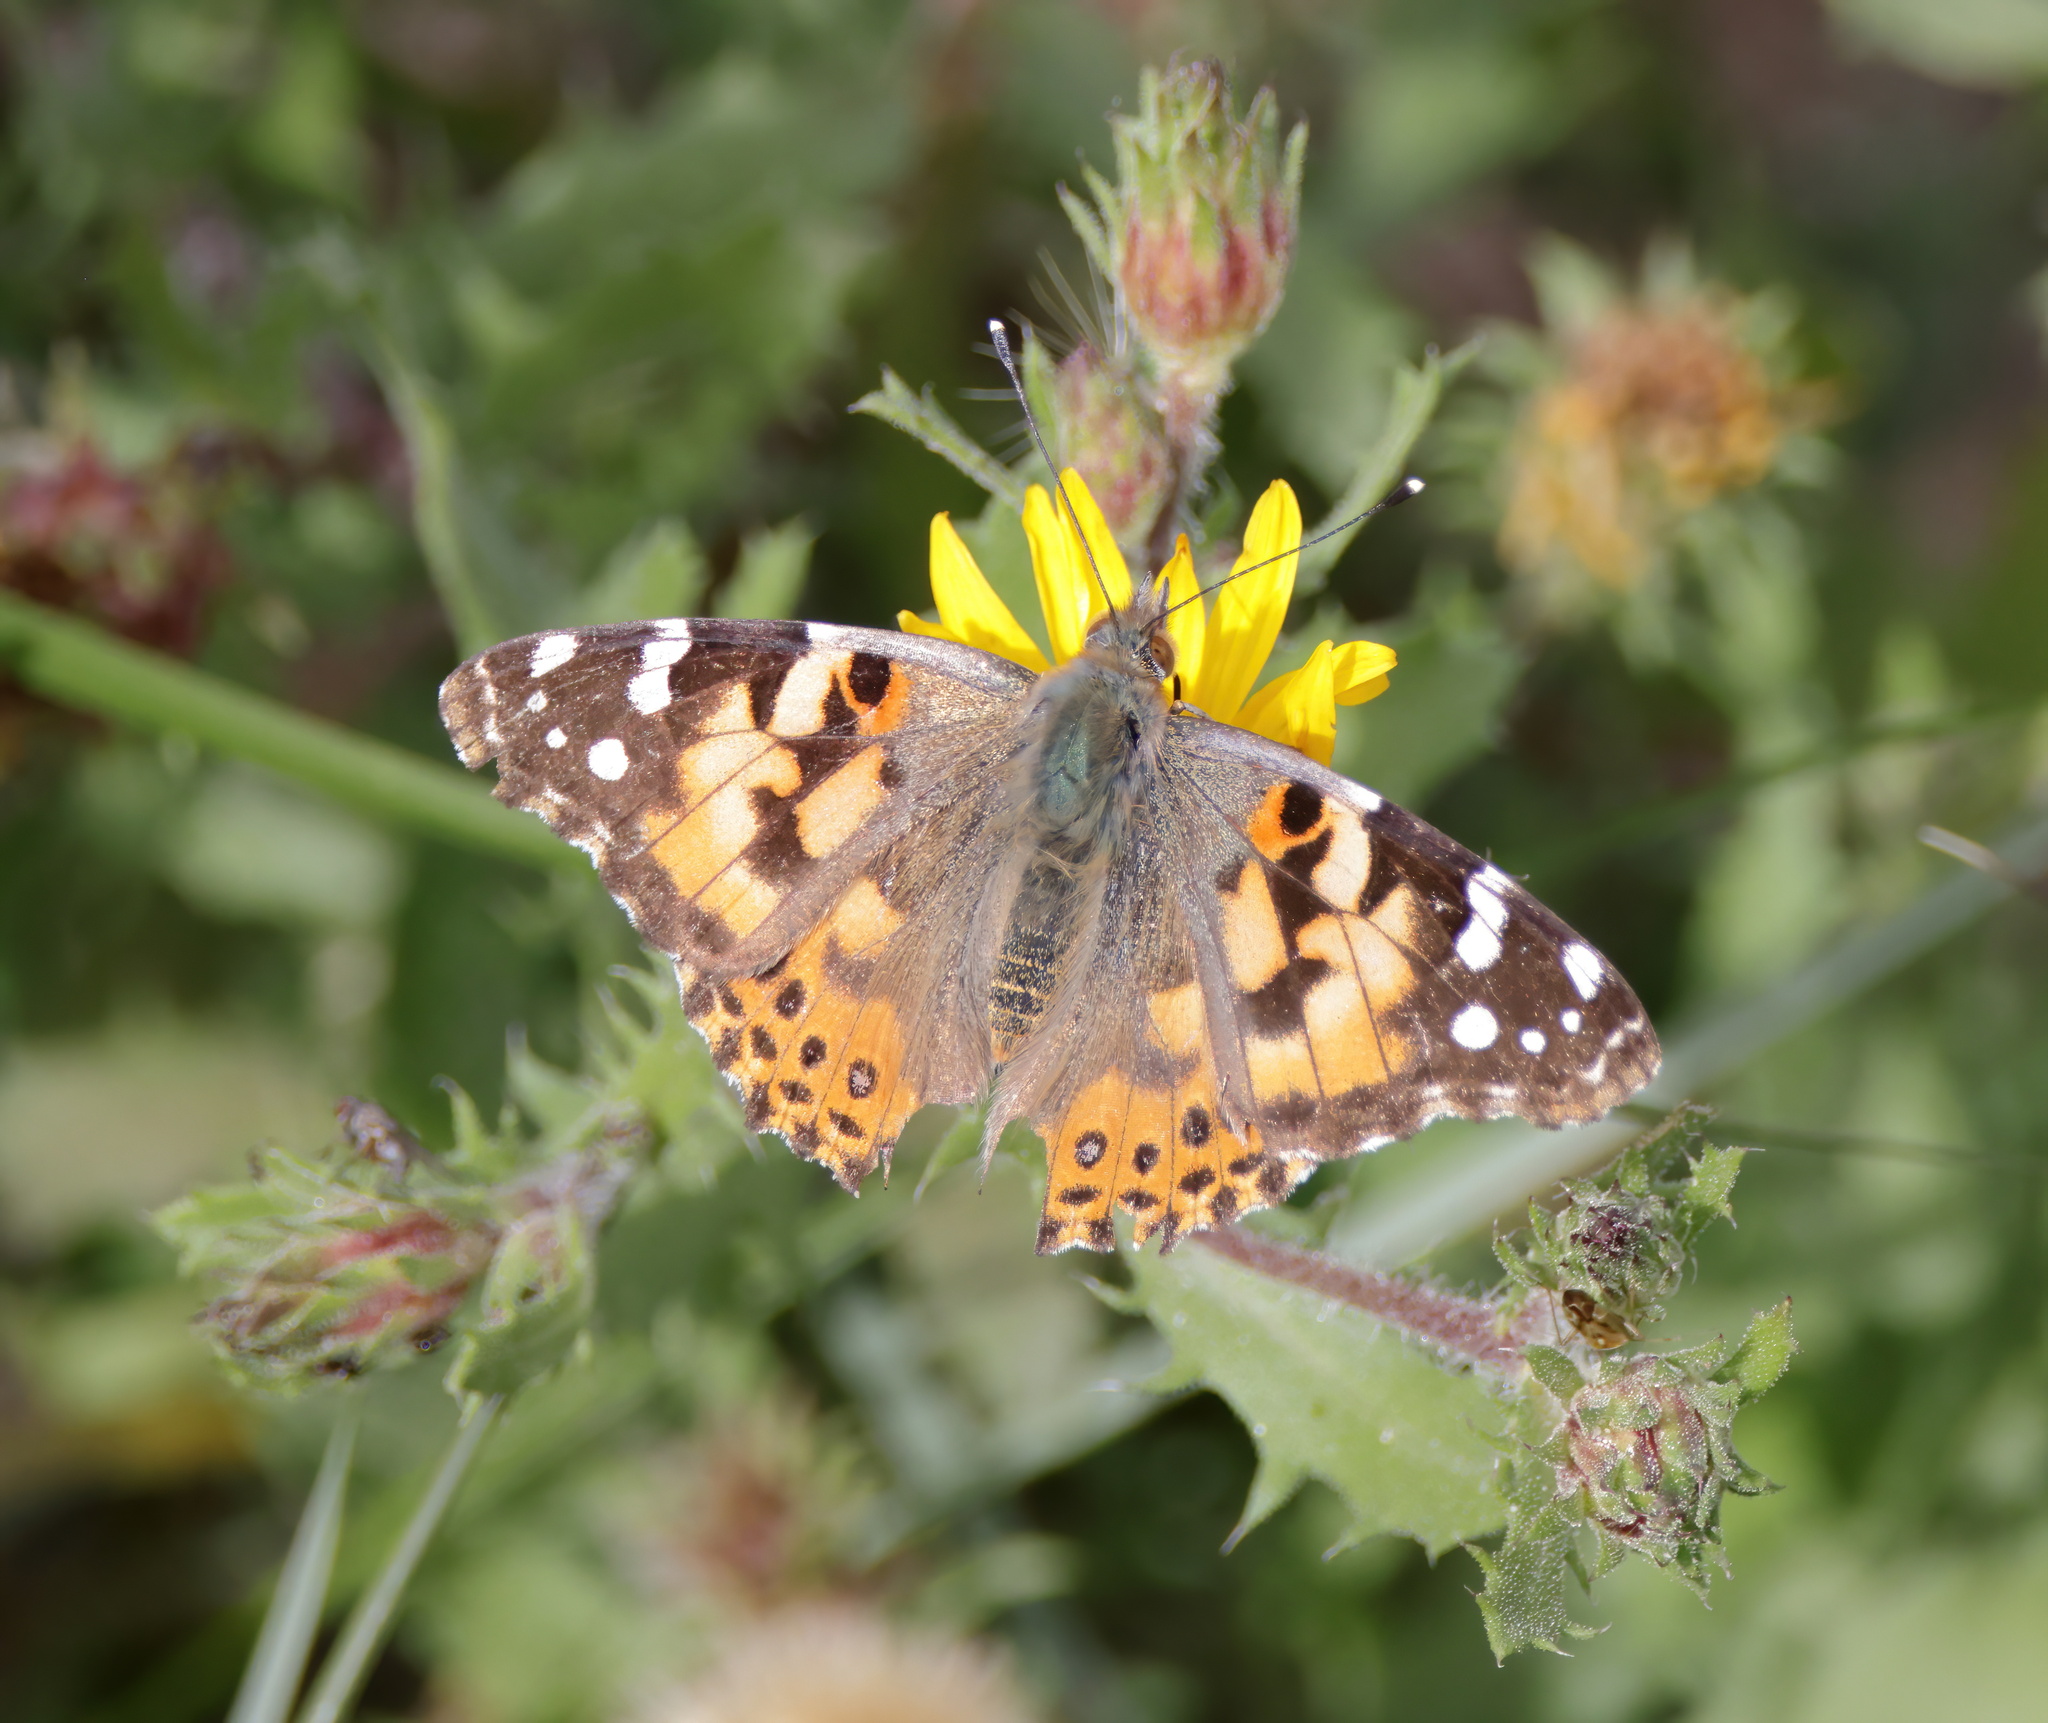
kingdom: Animalia
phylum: Arthropoda
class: Insecta
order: Lepidoptera
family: Nymphalidae
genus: Vanessa
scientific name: Vanessa cardui
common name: Painted lady
